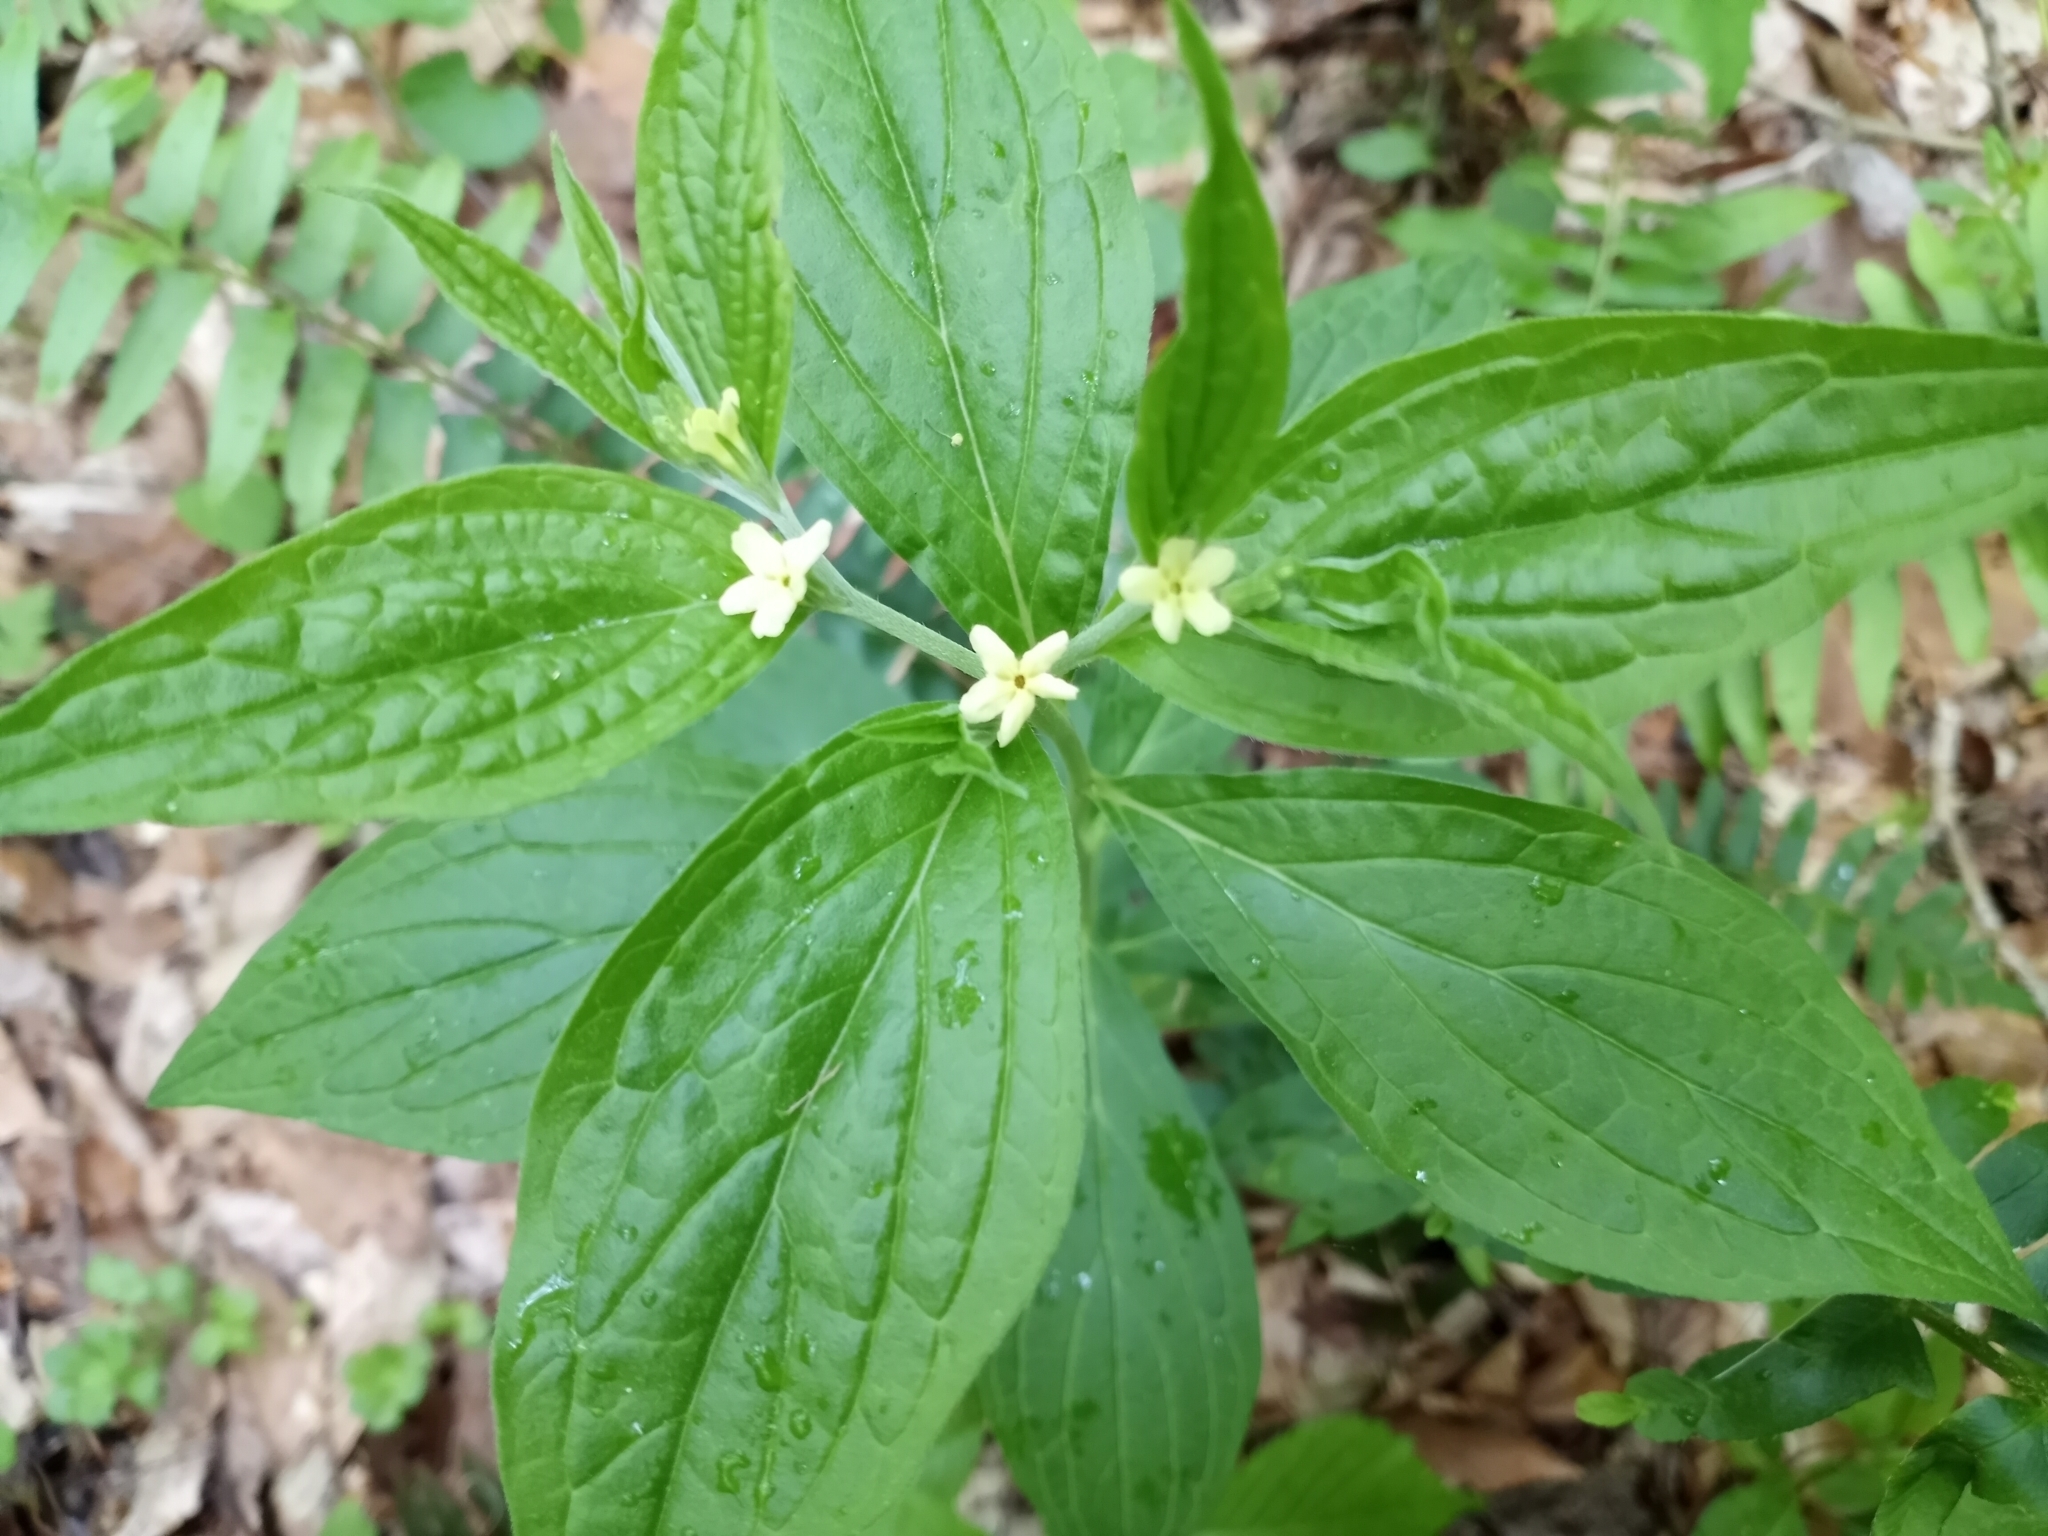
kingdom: Plantae
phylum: Tracheophyta
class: Magnoliopsida
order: Boraginales
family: Boraginaceae
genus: Lithospermum
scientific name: Lithospermum latifolium
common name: American gromwell
